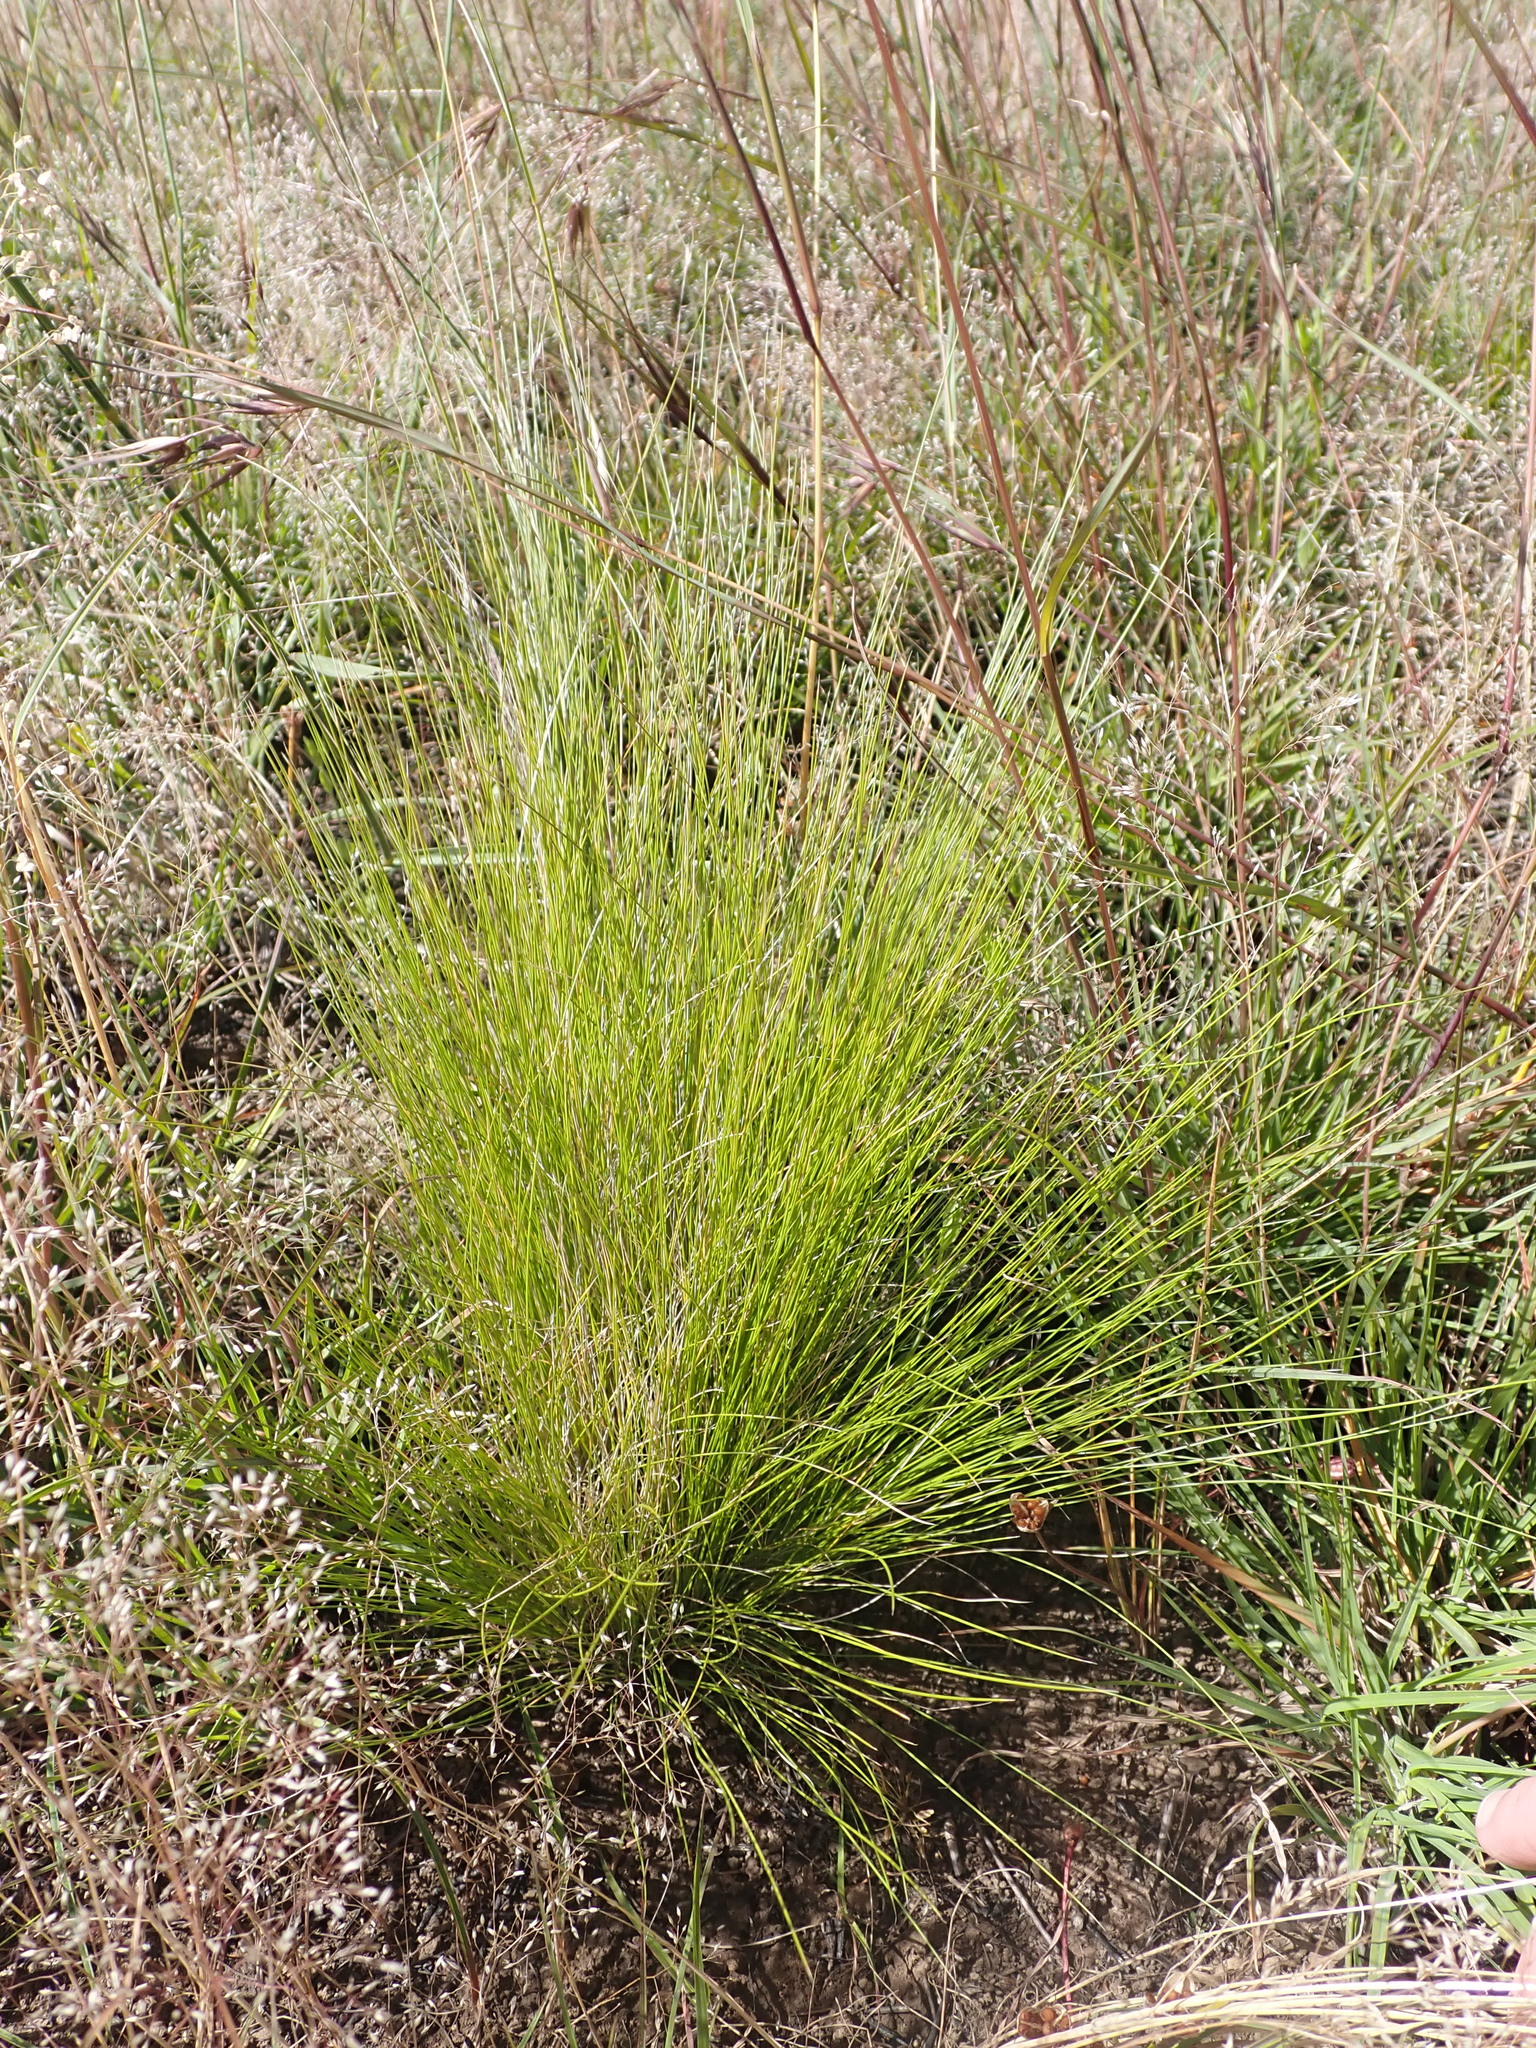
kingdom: Plantae
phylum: Tracheophyta
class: Liliopsida
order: Poales
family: Poaceae
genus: Nassella
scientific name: Nassella trichotoma
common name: Serrated tussock grass
